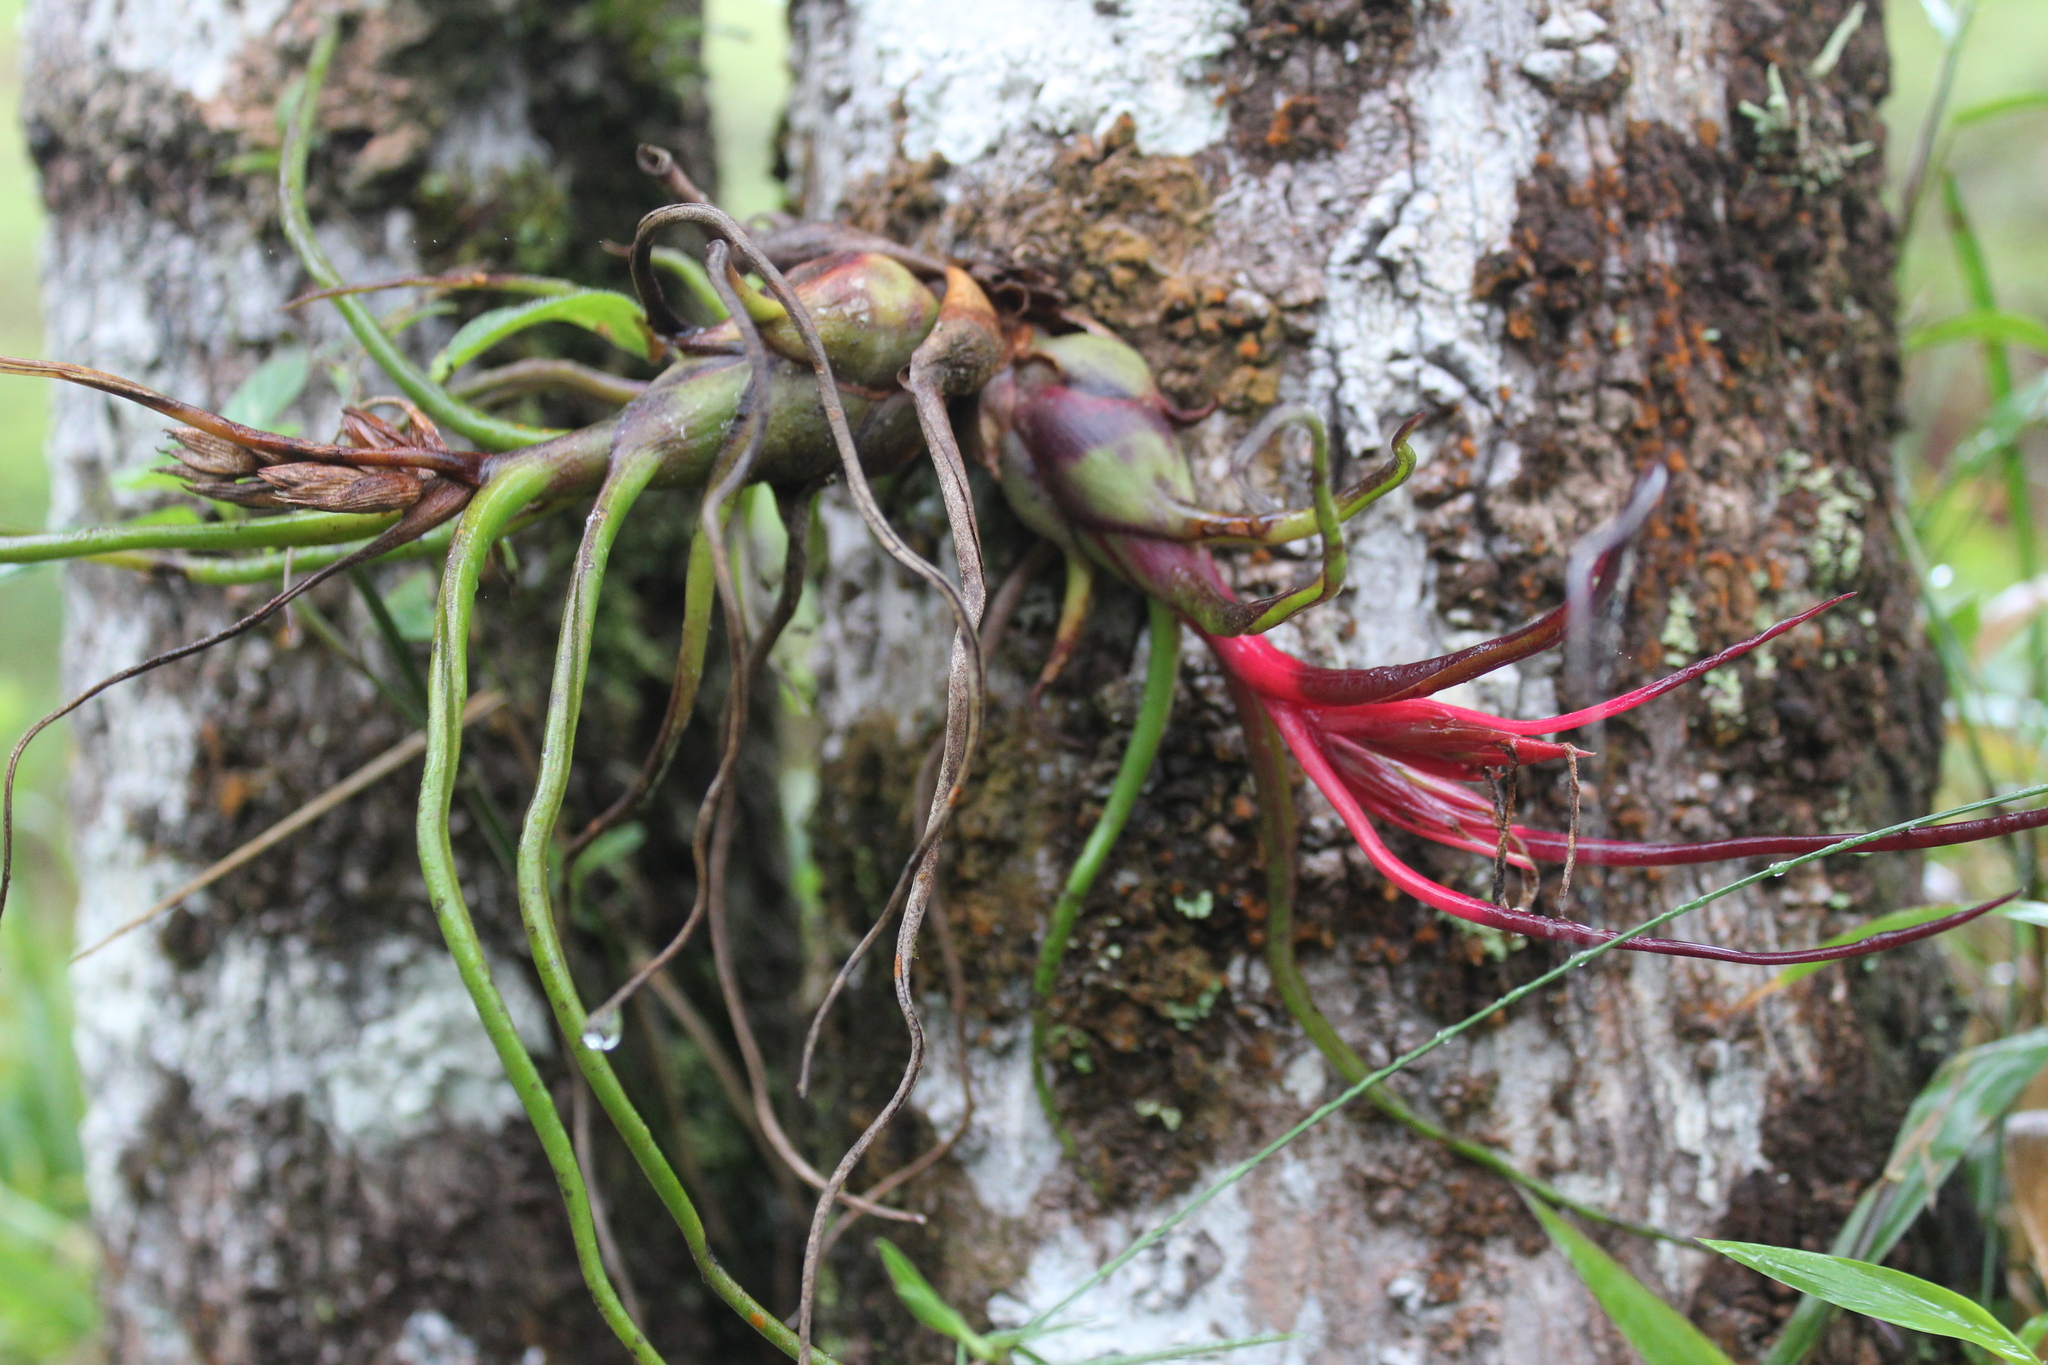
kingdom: Plantae
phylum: Tracheophyta
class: Liliopsida
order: Poales
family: Bromeliaceae
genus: Tillandsia
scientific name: Tillandsia bulbosa
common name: Bulbous airplant
